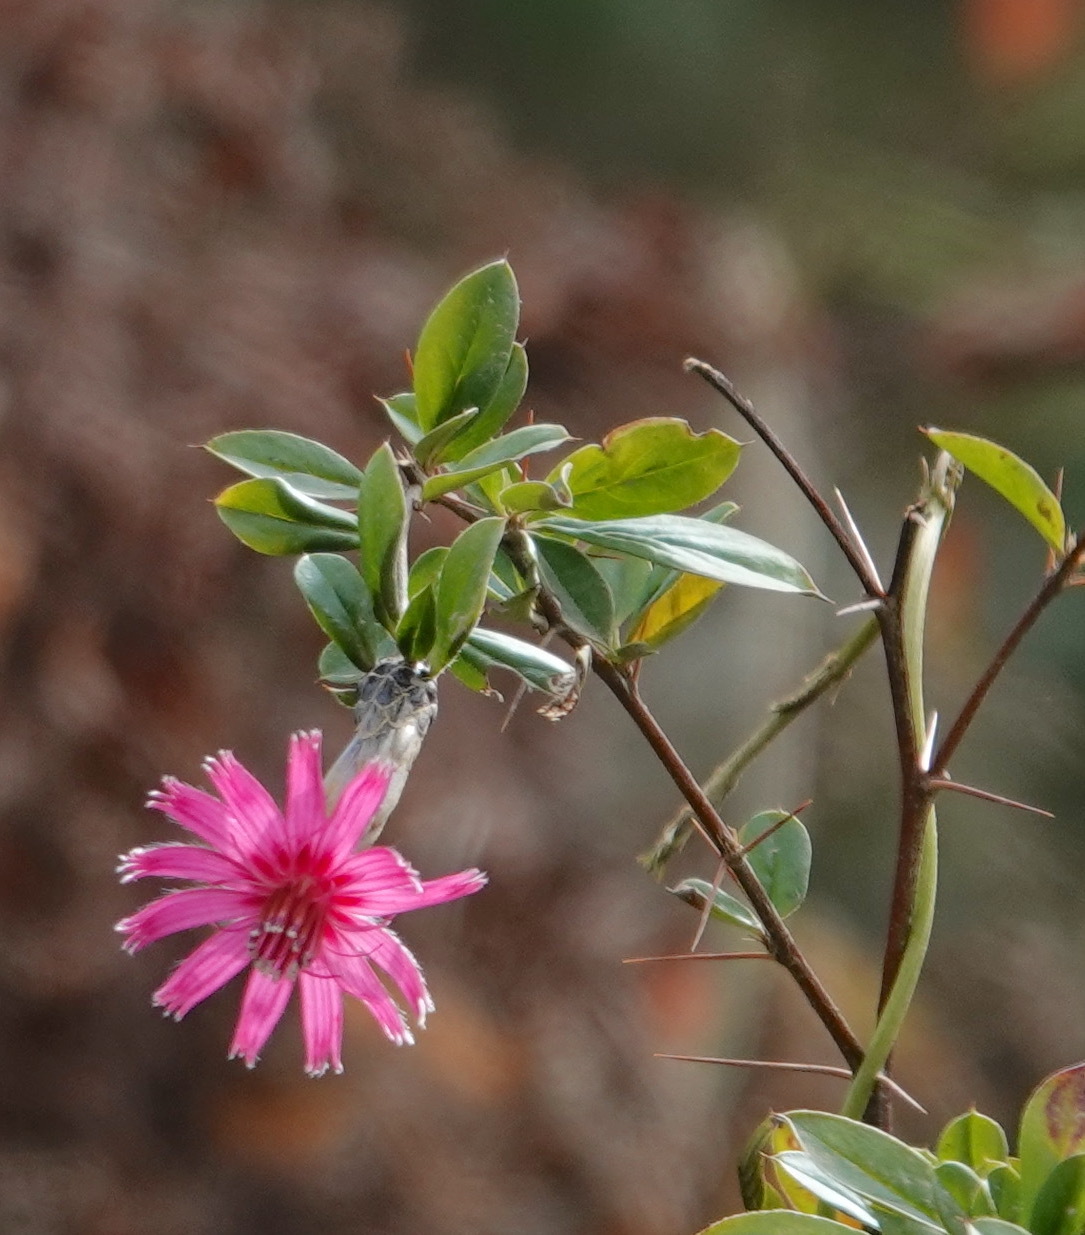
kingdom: Plantae
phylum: Tracheophyta
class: Magnoliopsida
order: Asterales
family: Asteraceae
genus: Barnadesia
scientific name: Barnadesia arborea
